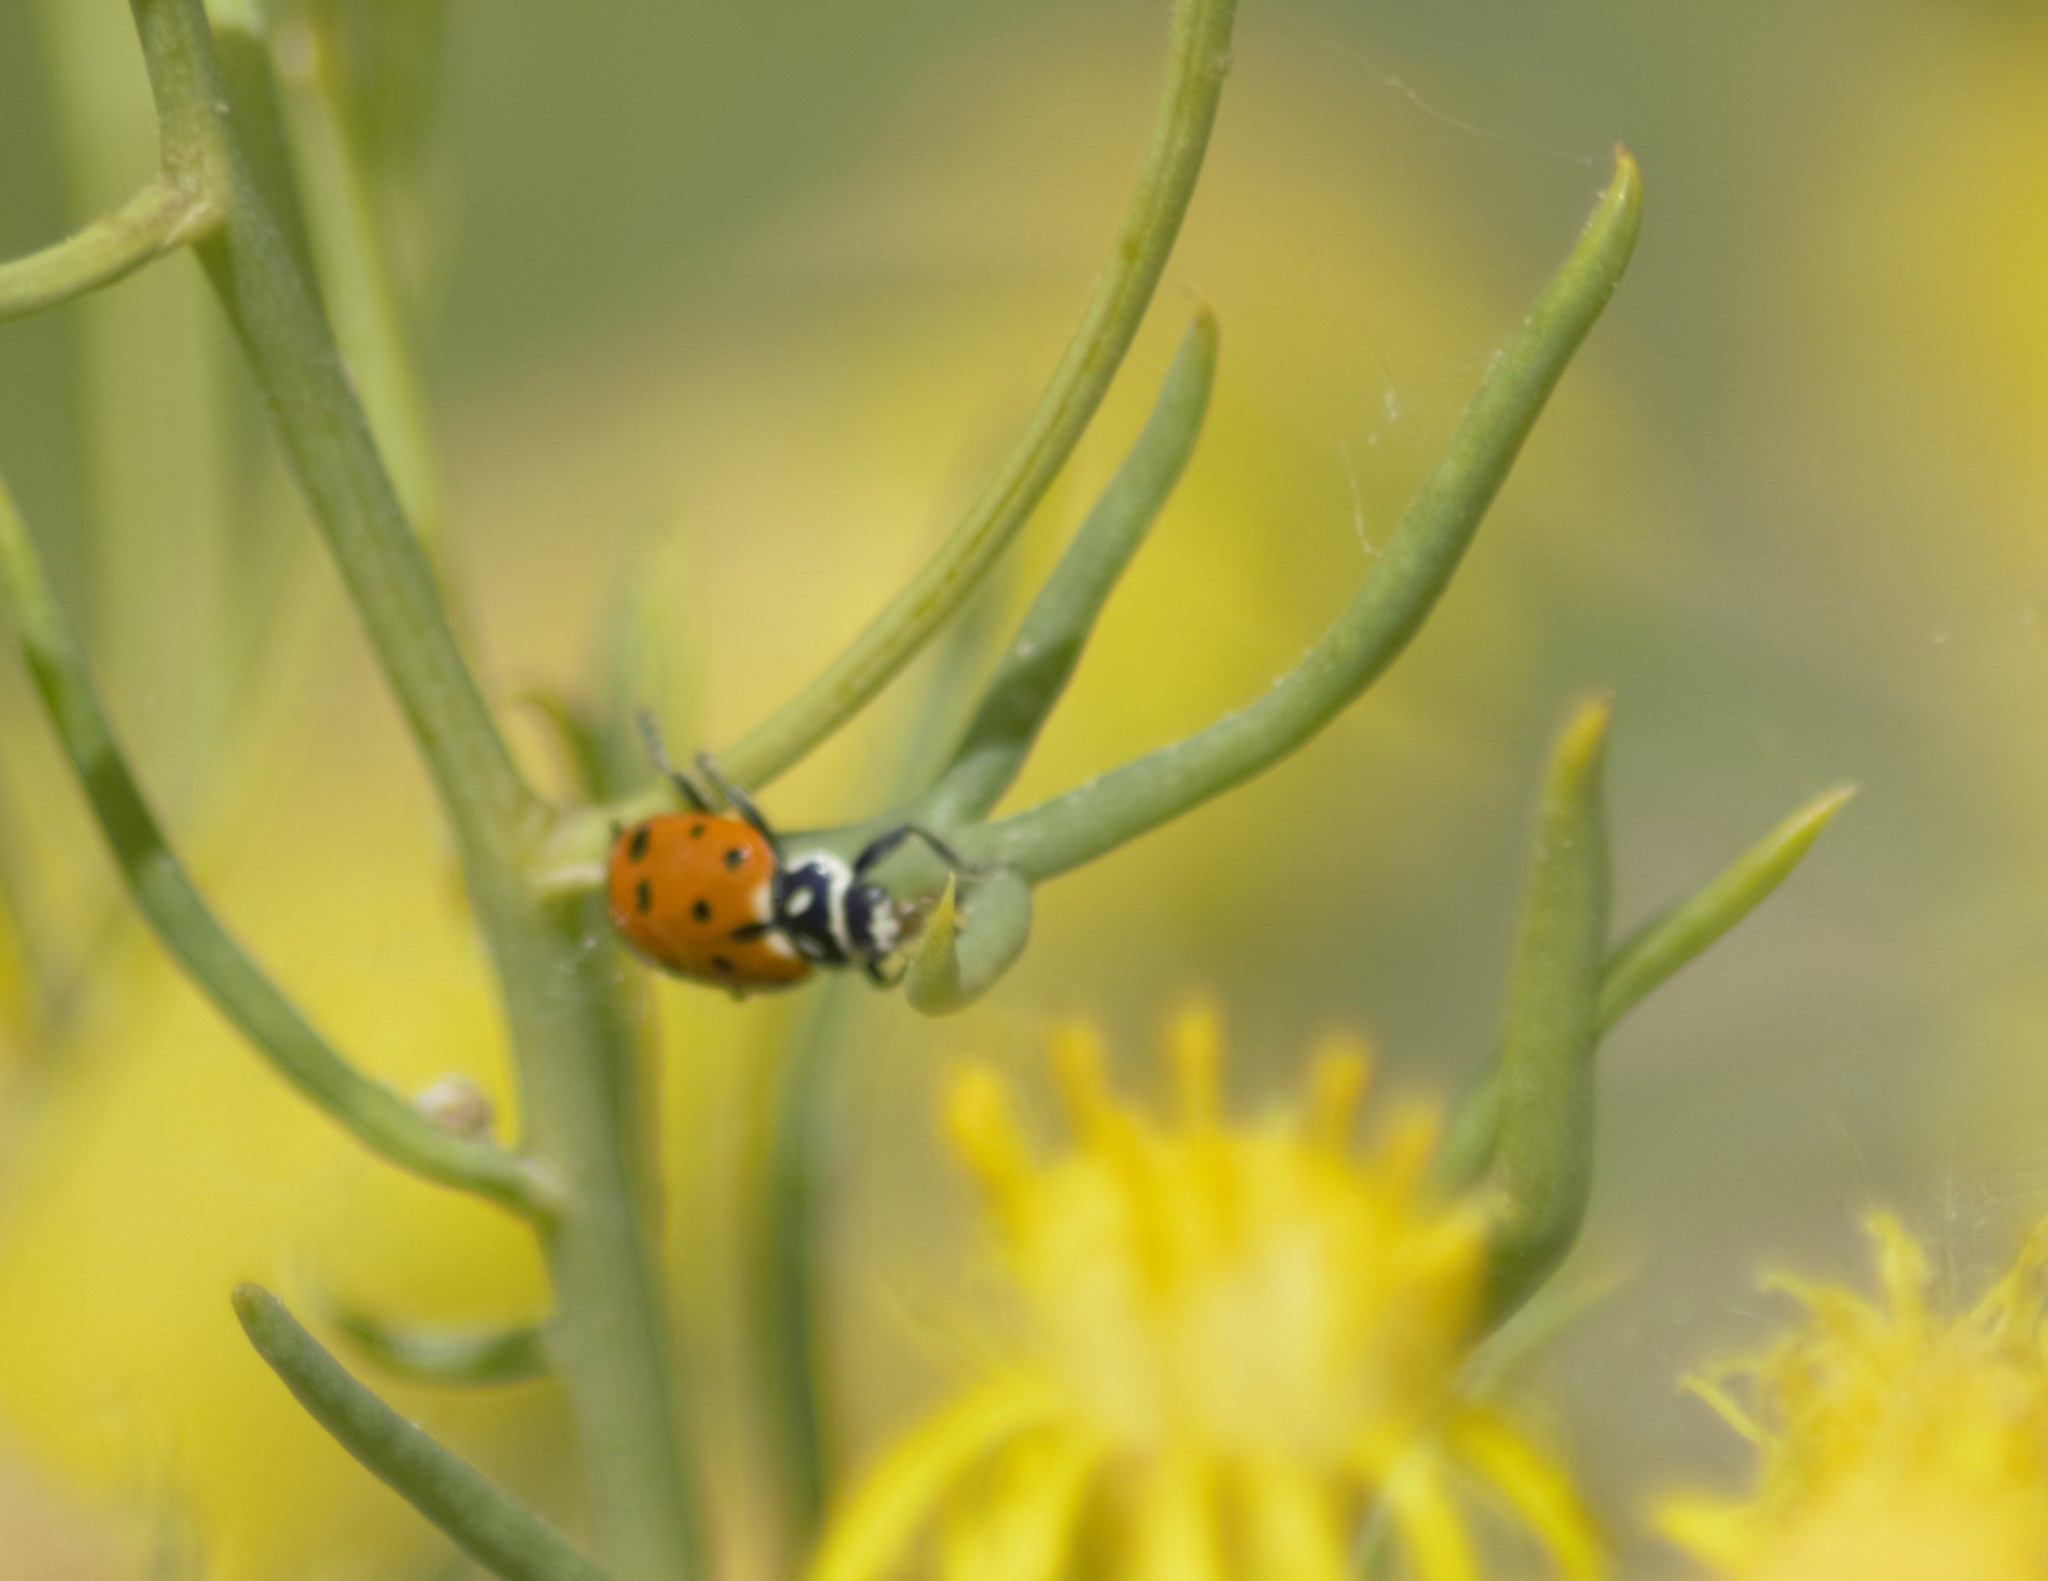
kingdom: Animalia
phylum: Arthropoda
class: Insecta
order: Coleoptera
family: Coccinellidae
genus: Hippodamia
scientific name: Hippodamia convergens
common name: Convergent lady beetle
